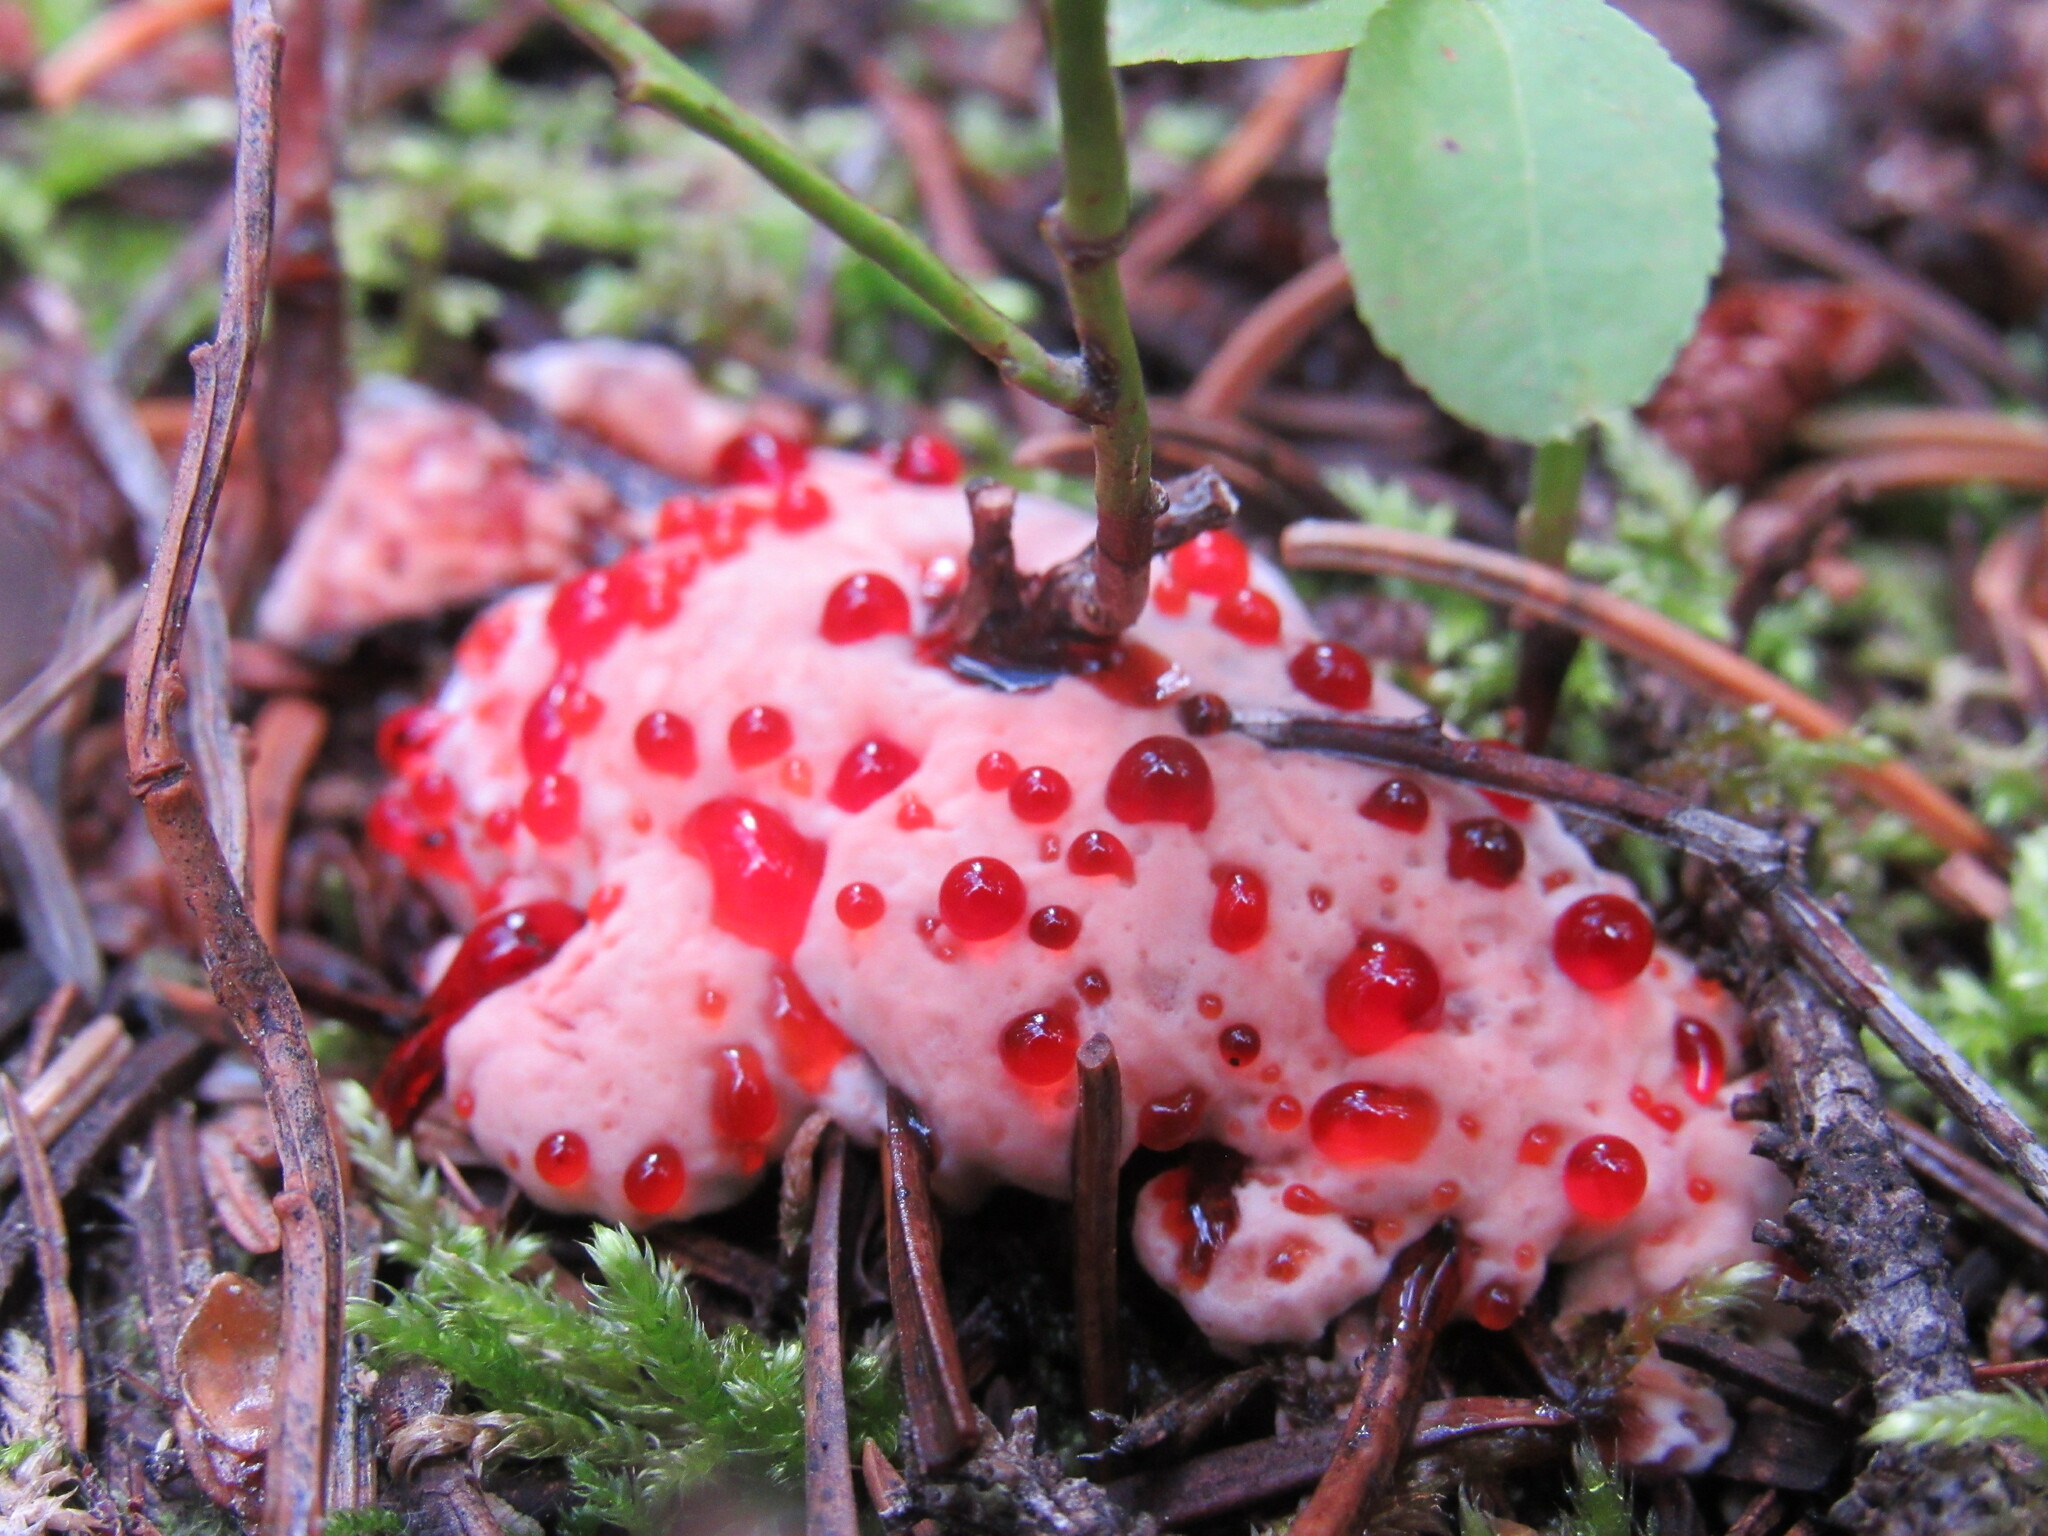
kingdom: Fungi
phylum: Basidiomycota
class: Agaricomycetes
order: Thelephorales
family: Bankeraceae
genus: Hydnellum
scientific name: Hydnellum peckii
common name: Devil's tooth
